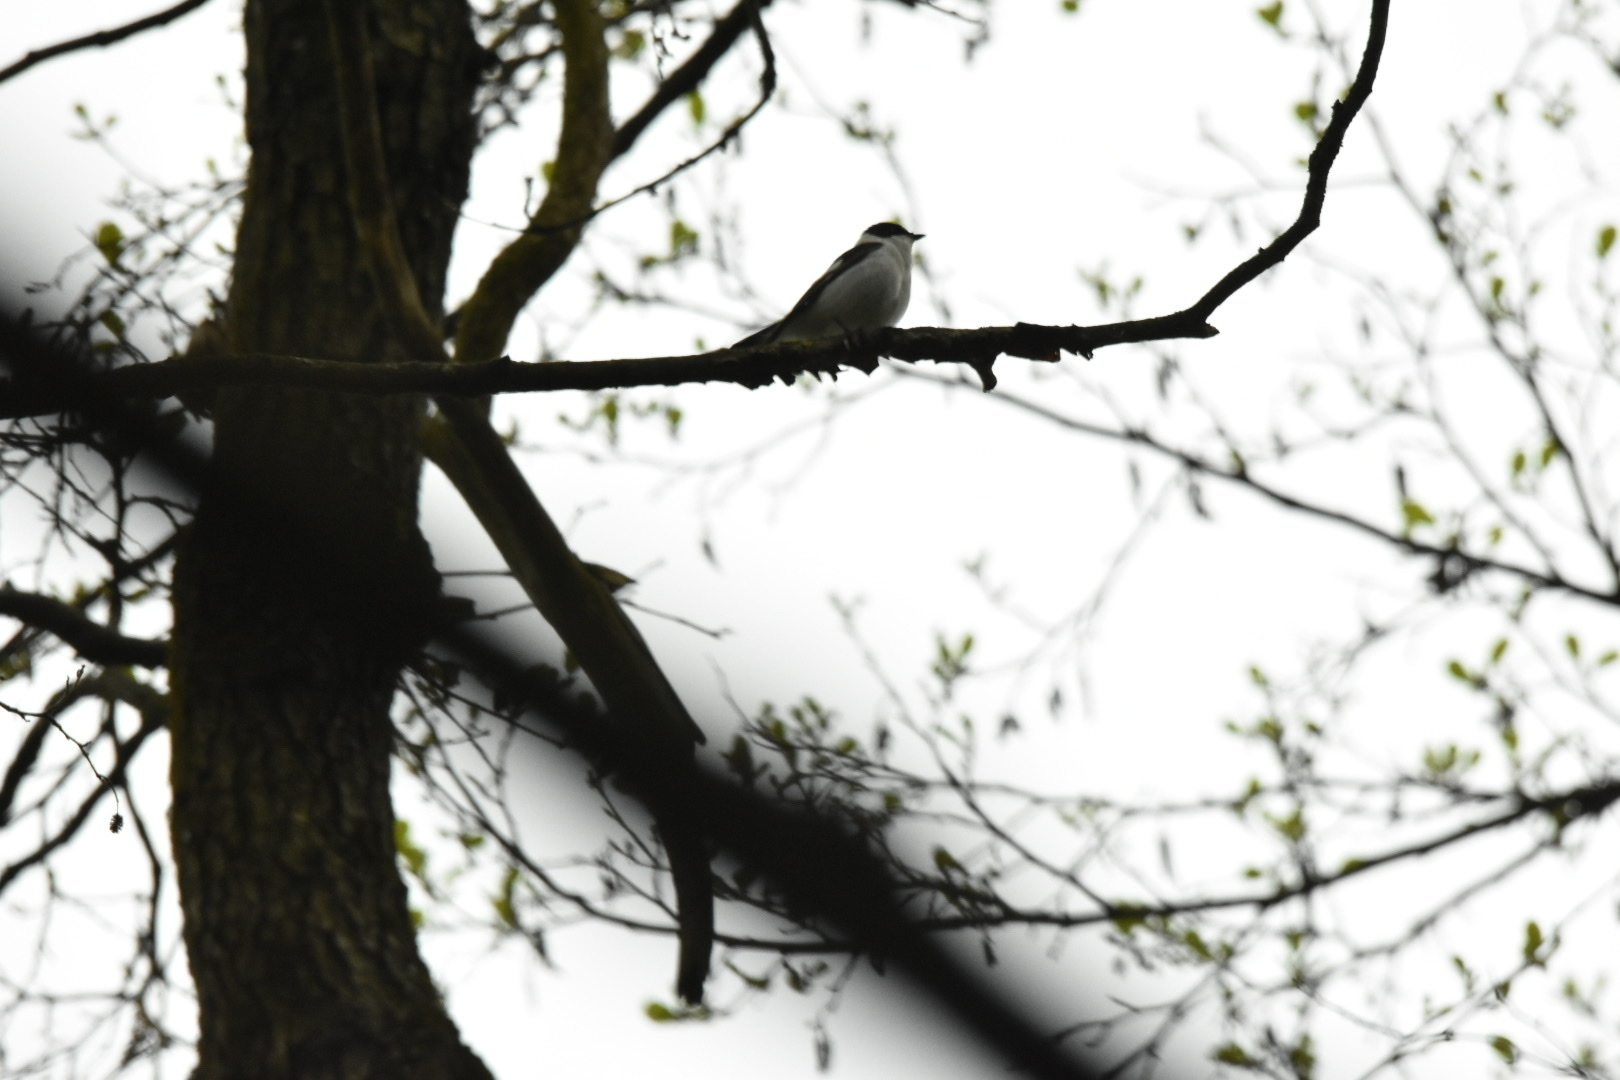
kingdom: Animalia
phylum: Chordata
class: Aves
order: Passeriformes
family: Muscicapidae
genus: Ficedula
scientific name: Ficedula albicollis
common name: Collared flycatcher
